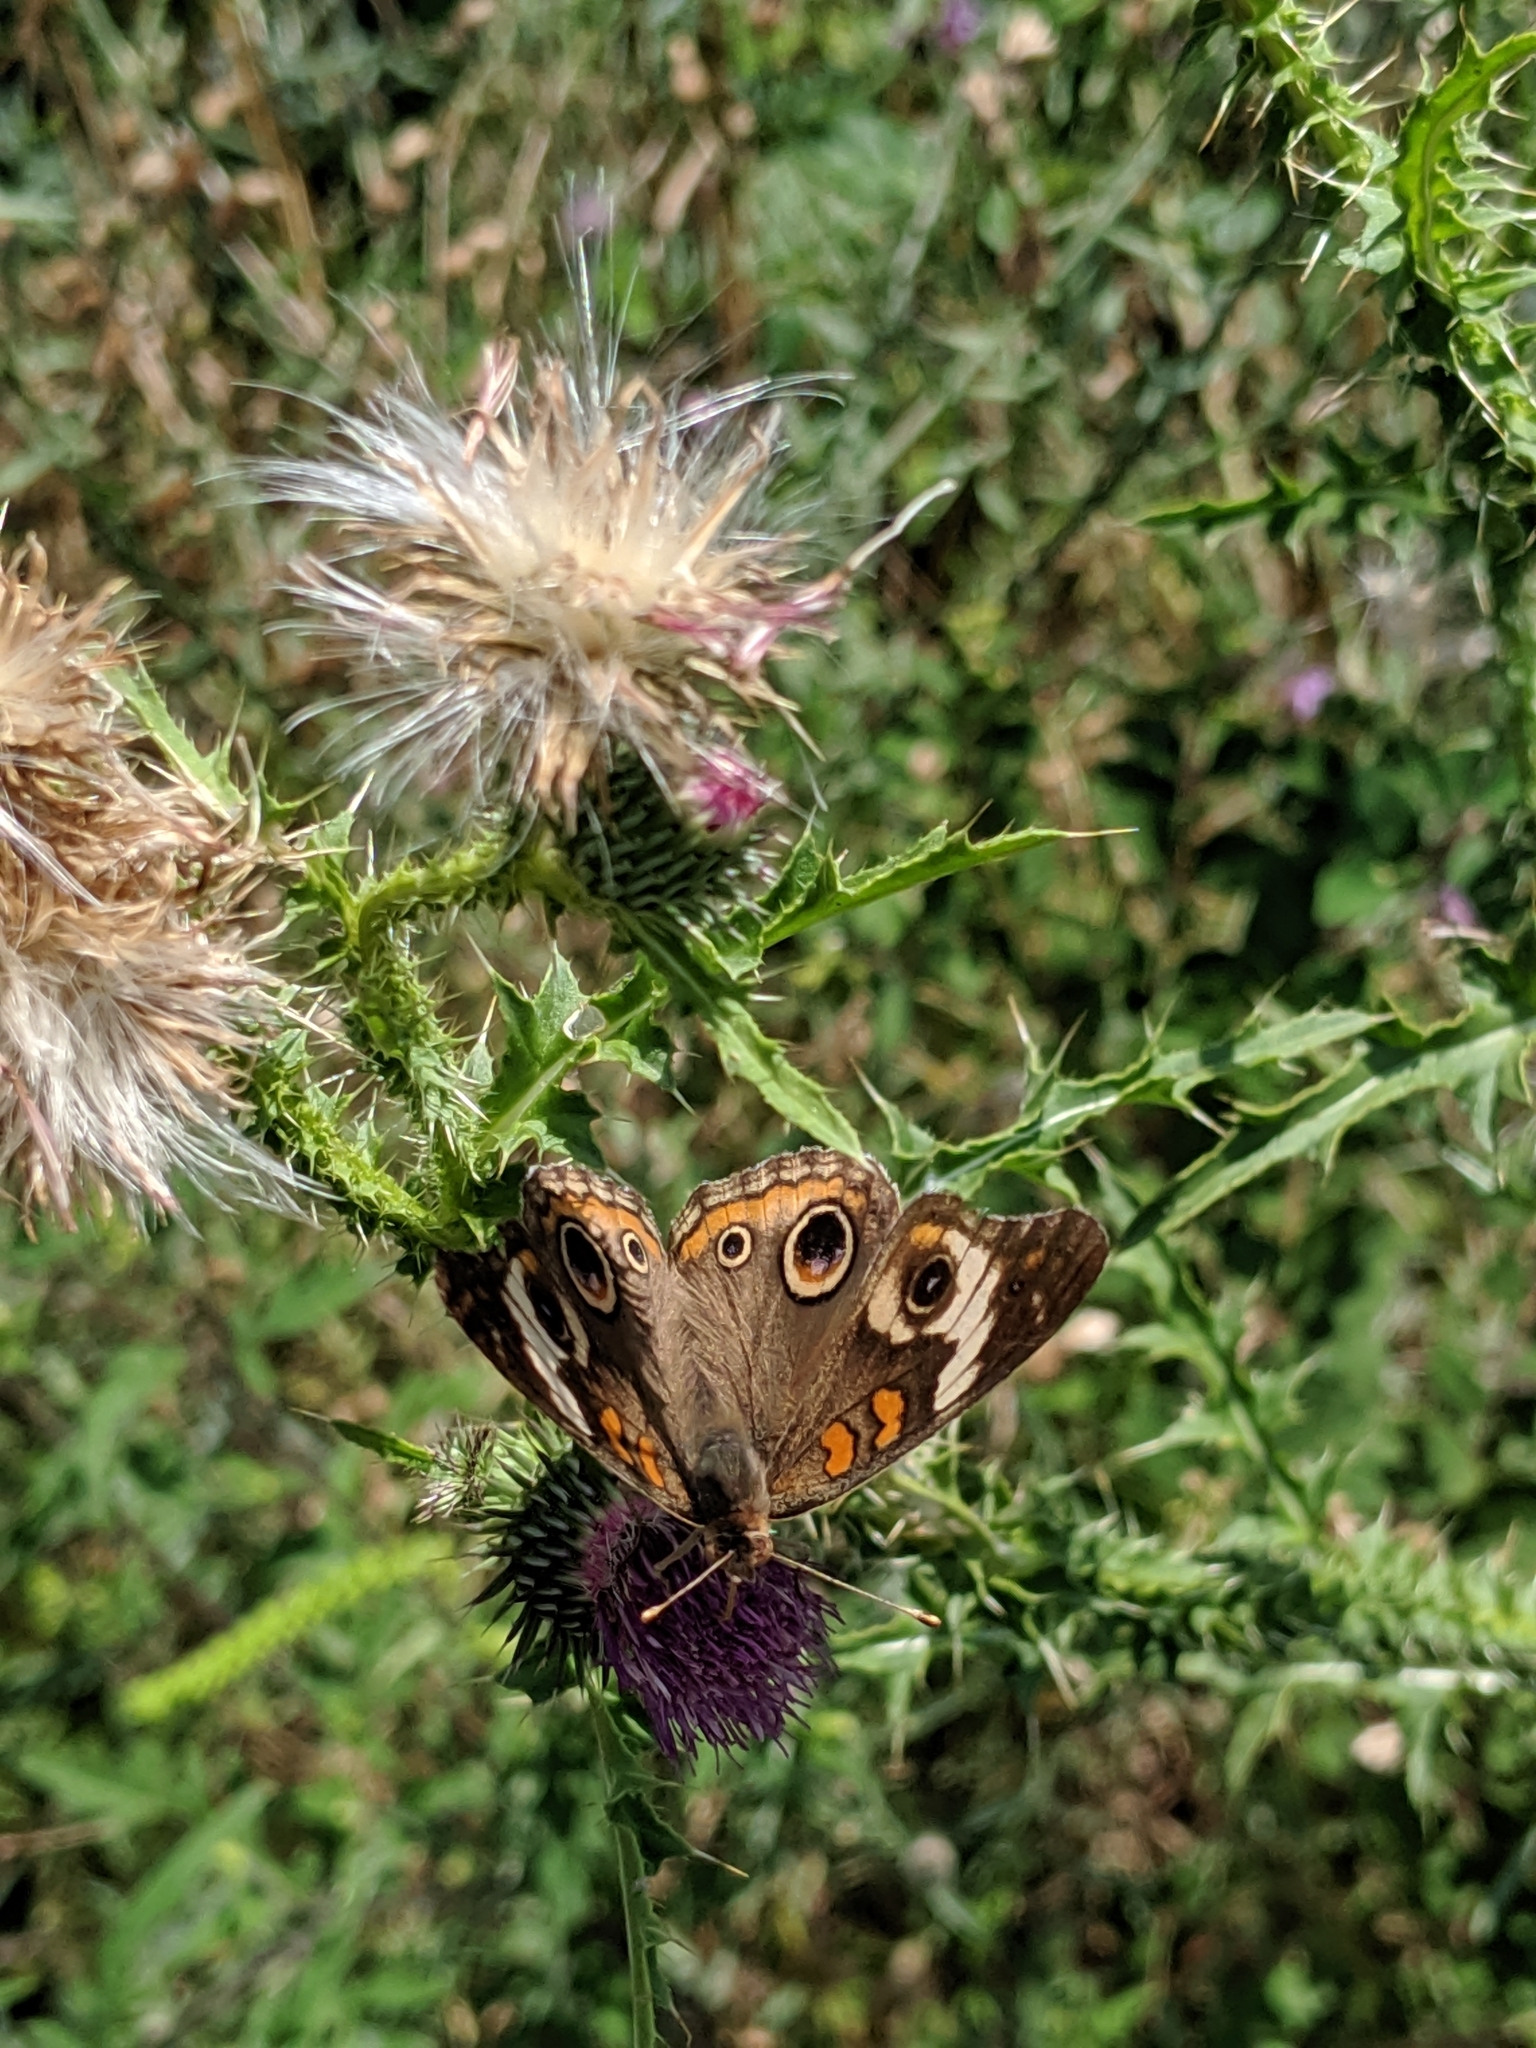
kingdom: Animalia
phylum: Arthropoda
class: Insecta
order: Lepidoptera
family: Nymphalidae
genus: Junonia
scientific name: Junonia coenia
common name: Common buckeye
